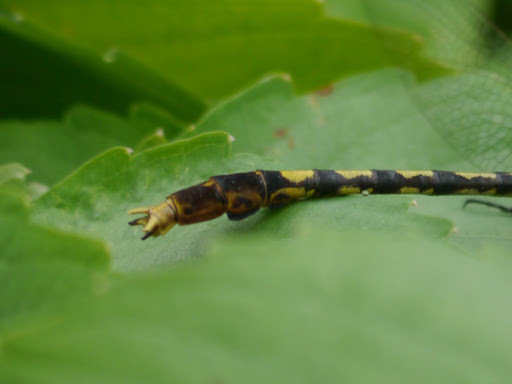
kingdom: Animalia
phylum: Arthropoda
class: Insecta
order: Odonata
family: Gomphidae
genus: Arigomphus
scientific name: Arigomphus villosipes
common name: Unicorn clubtail
